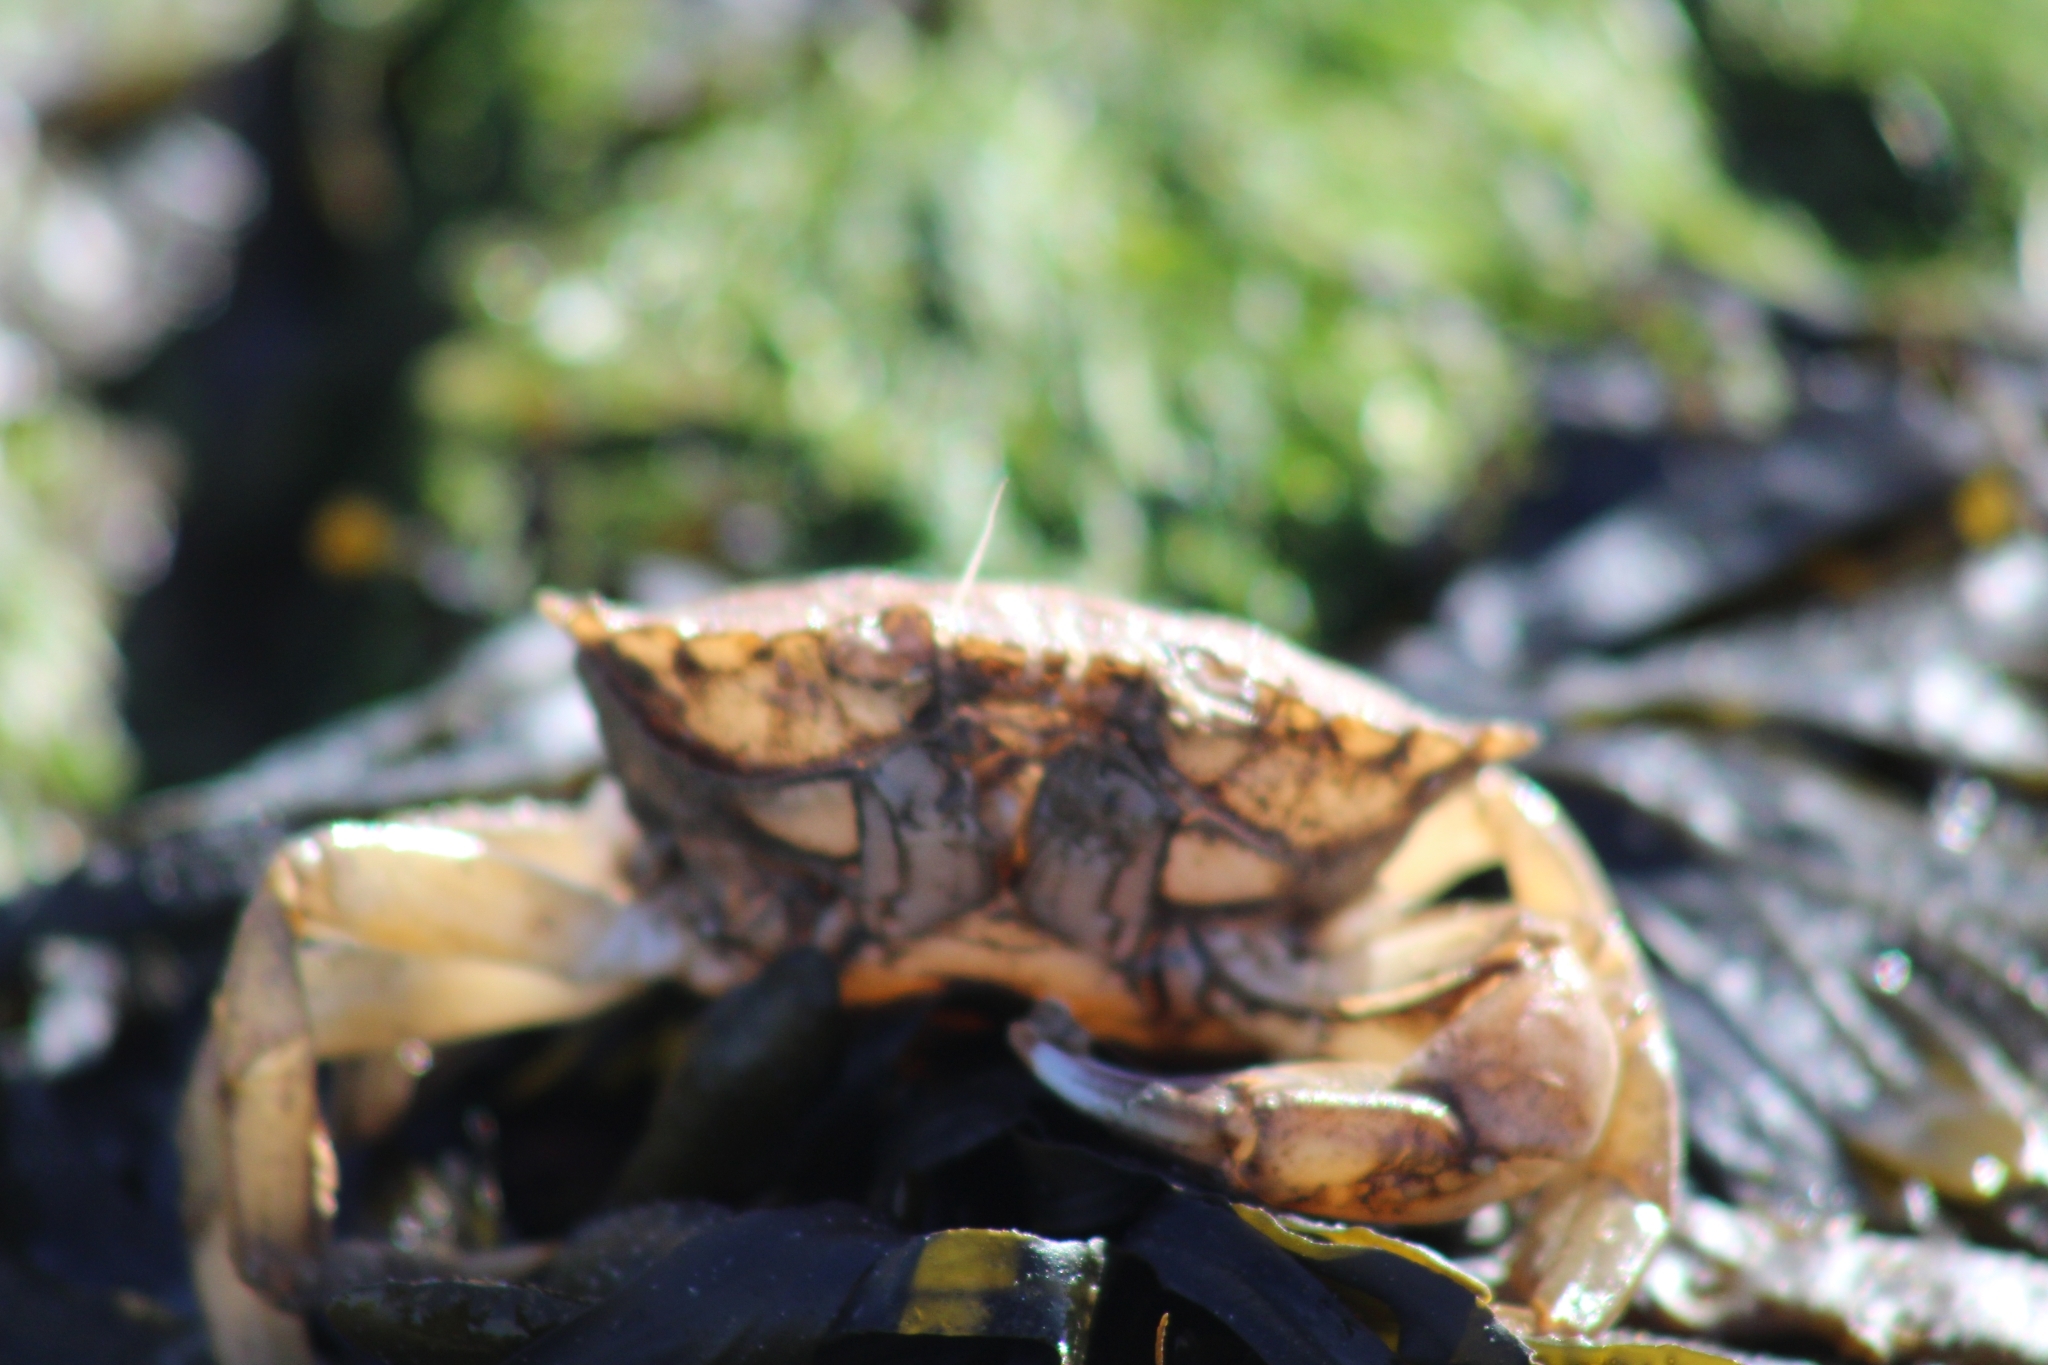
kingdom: Animalia
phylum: Arthropoda
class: Malacostraca
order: Decapoda
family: Carcinidae
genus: Carcinus
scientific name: Carcinus maenas
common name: European green crab
